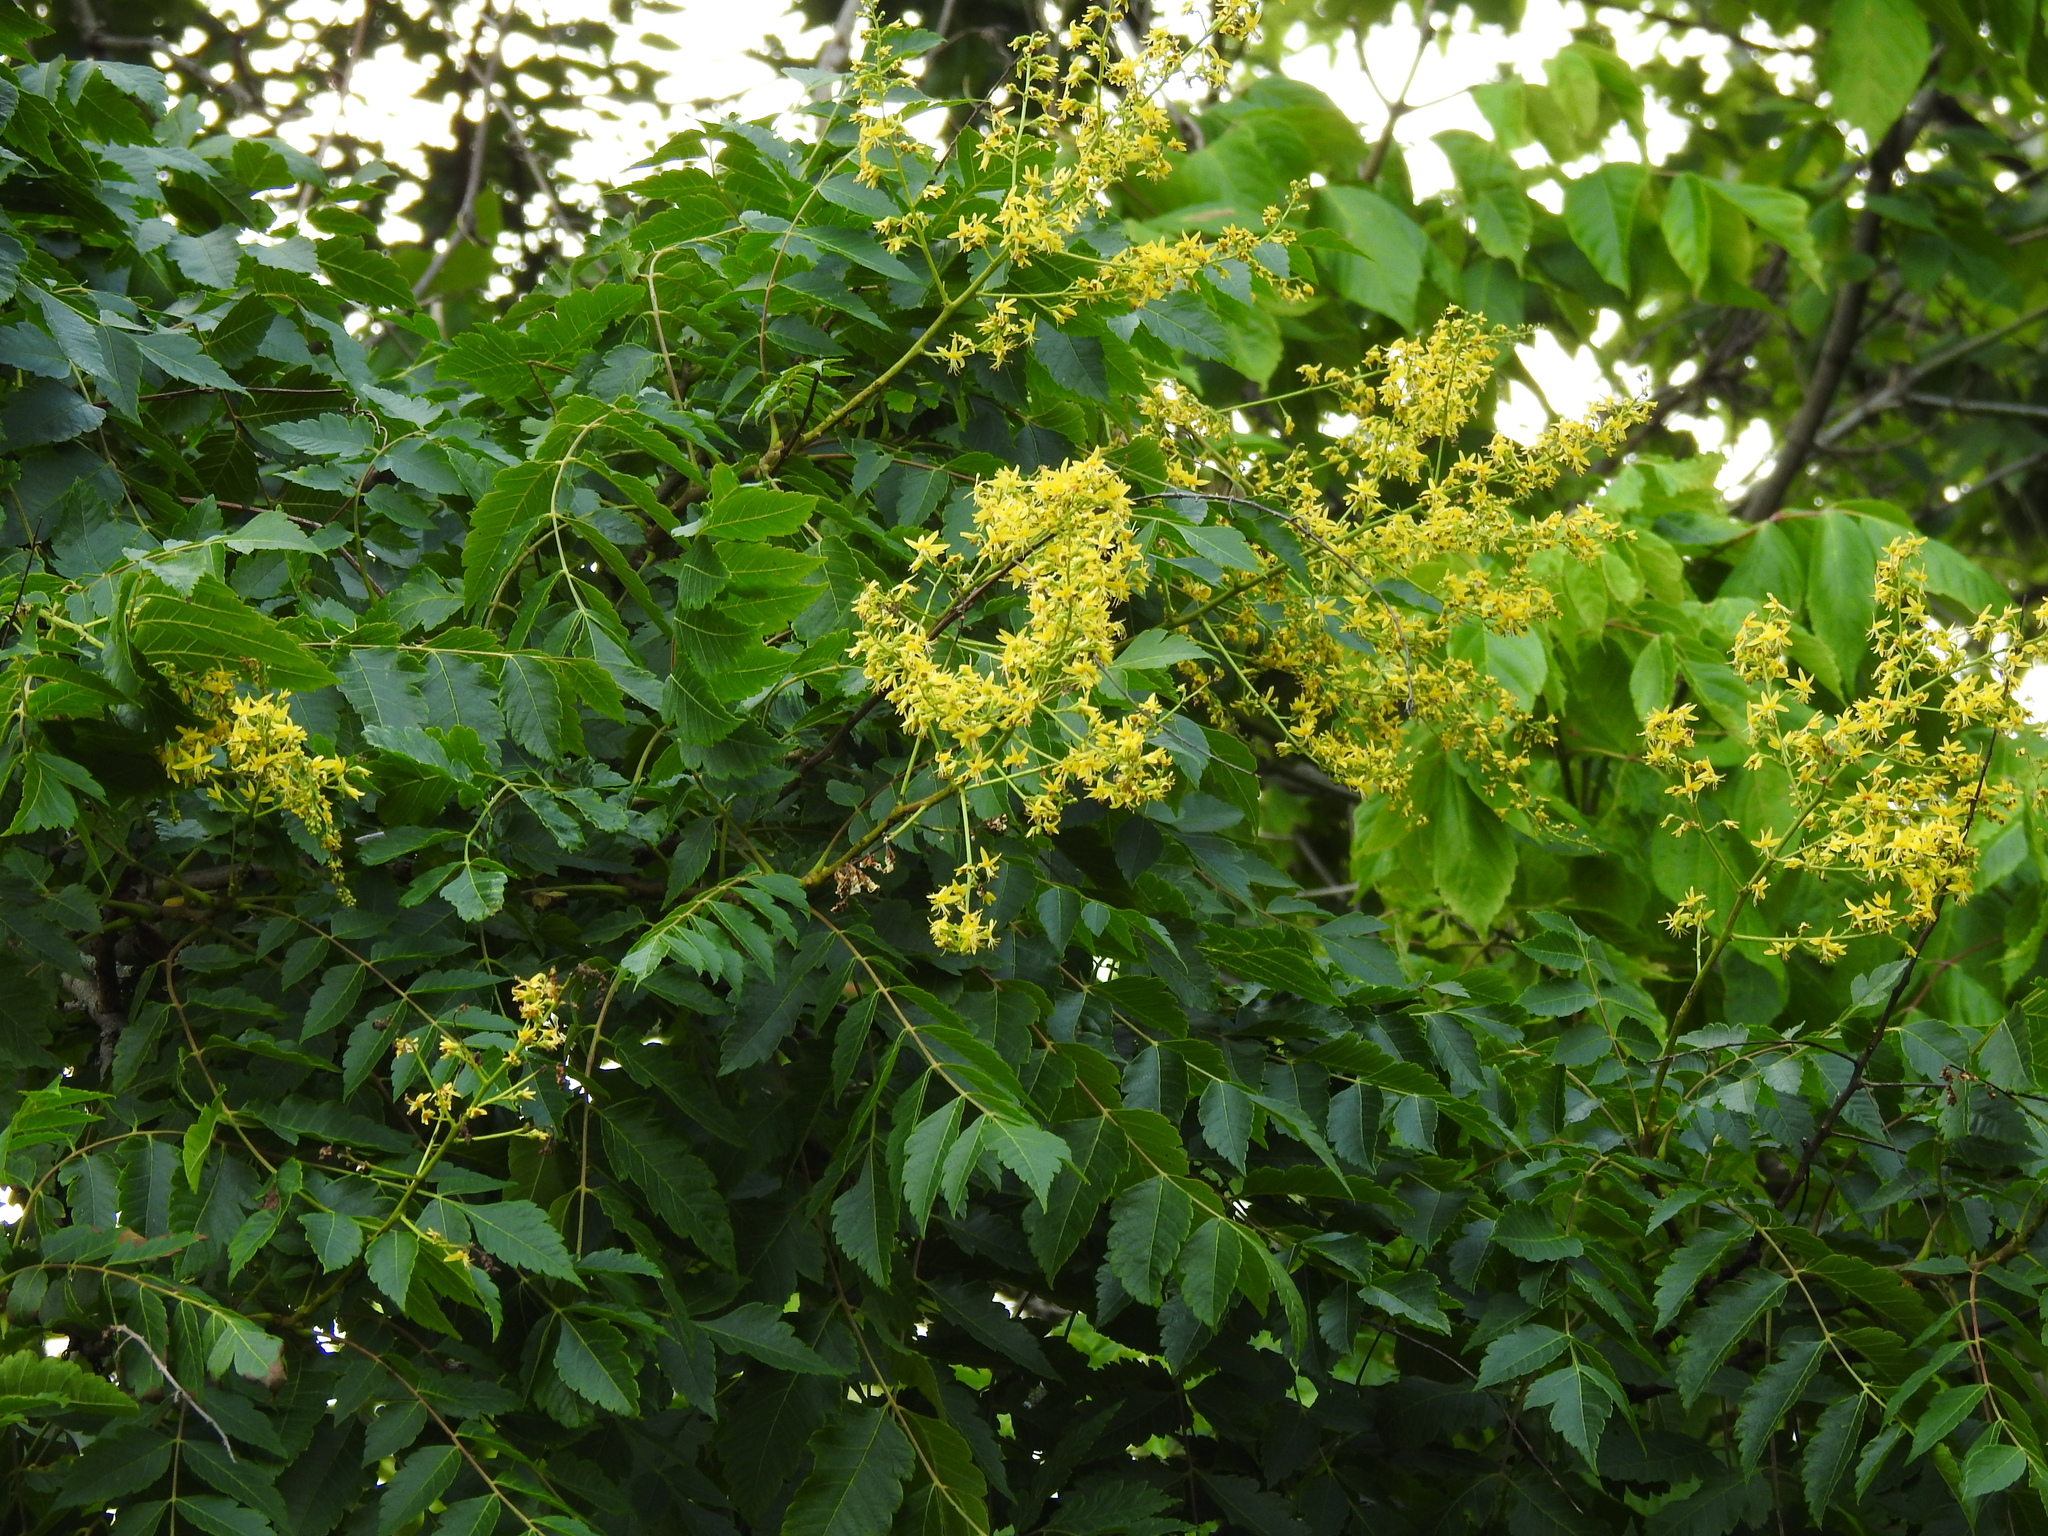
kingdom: Plantae
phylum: Tracheophyta
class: Magnoliopsida
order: Sapindales
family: Sapindaceae
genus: Koelreuteria
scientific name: Koelreuteria paniculata
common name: Pride-of-india
